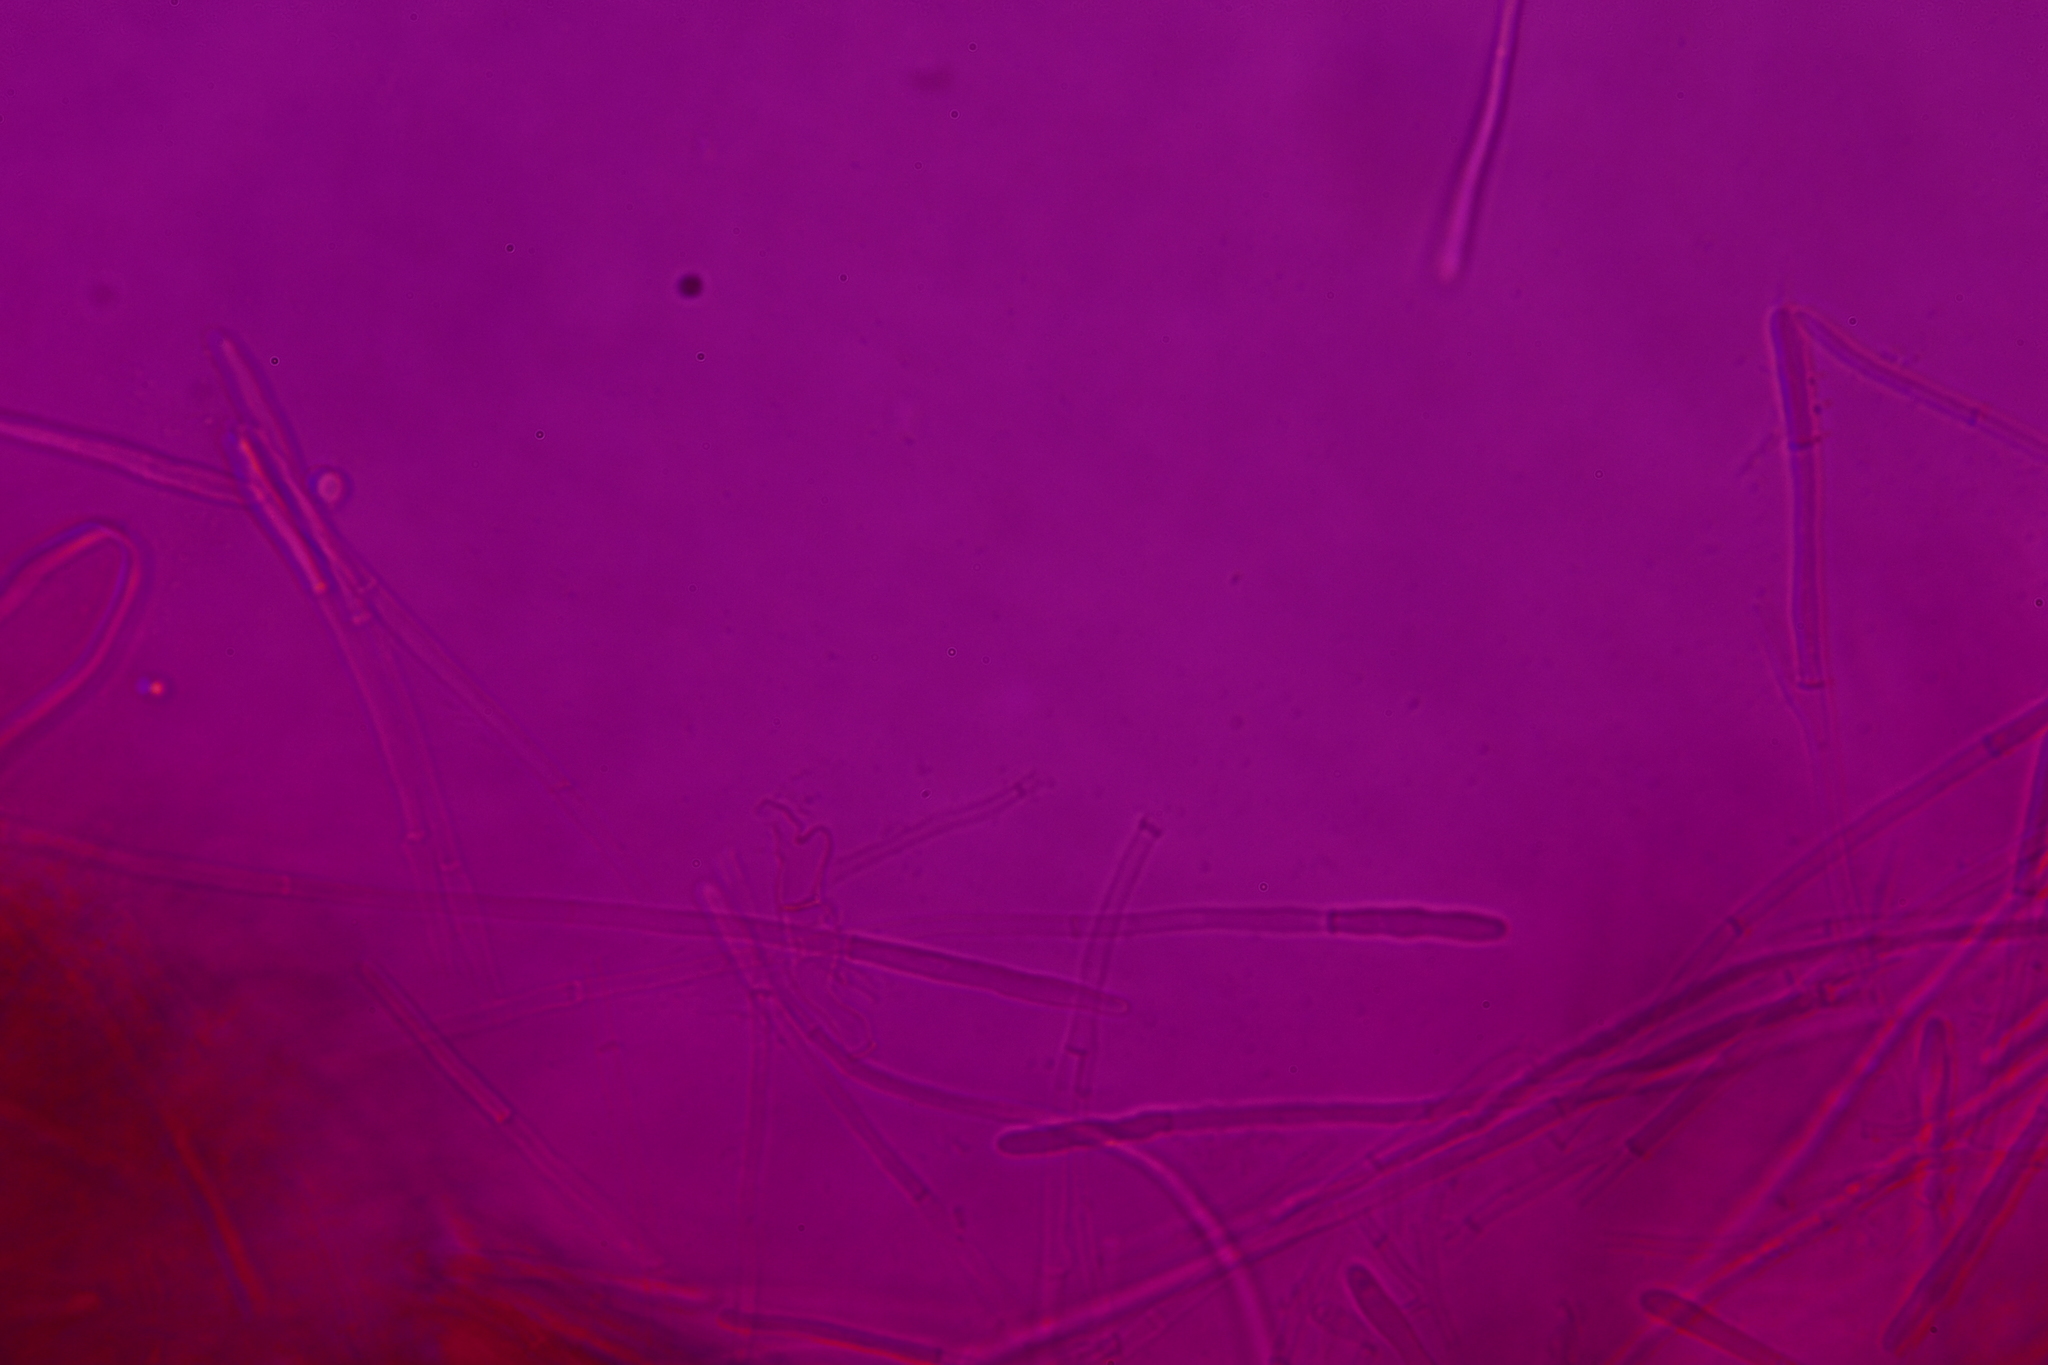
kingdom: Fungi
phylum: Ascomycota
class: Pezizomycetes
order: Pezizales
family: Tarzettaceae
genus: Tarzetta
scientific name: Tarzetta cupularis
